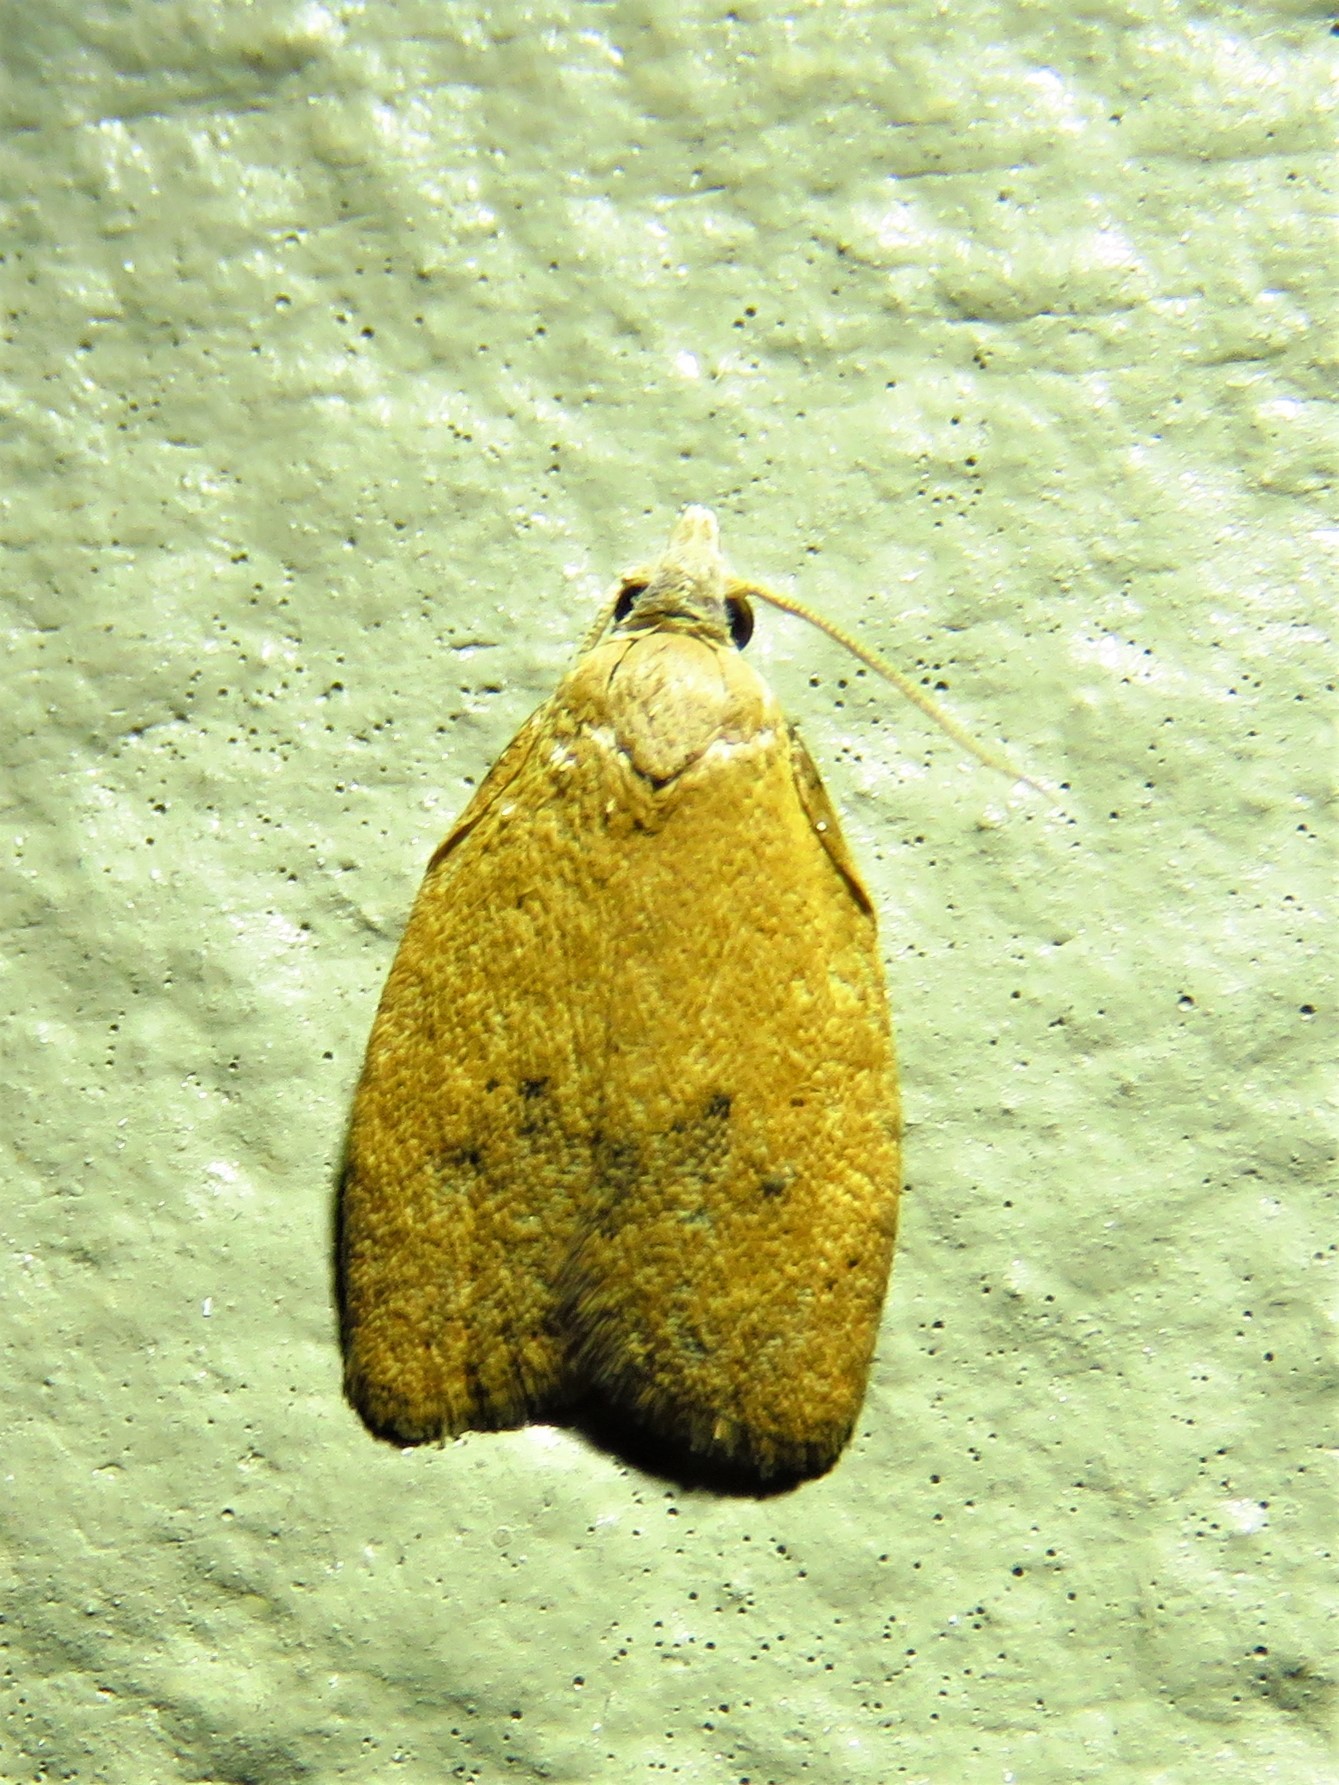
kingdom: Animalia
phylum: Arthropoda
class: Insecta
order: Lepidoptera
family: Tortricidae
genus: Sparganothoides
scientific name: Sparganothoides lentiginosana
